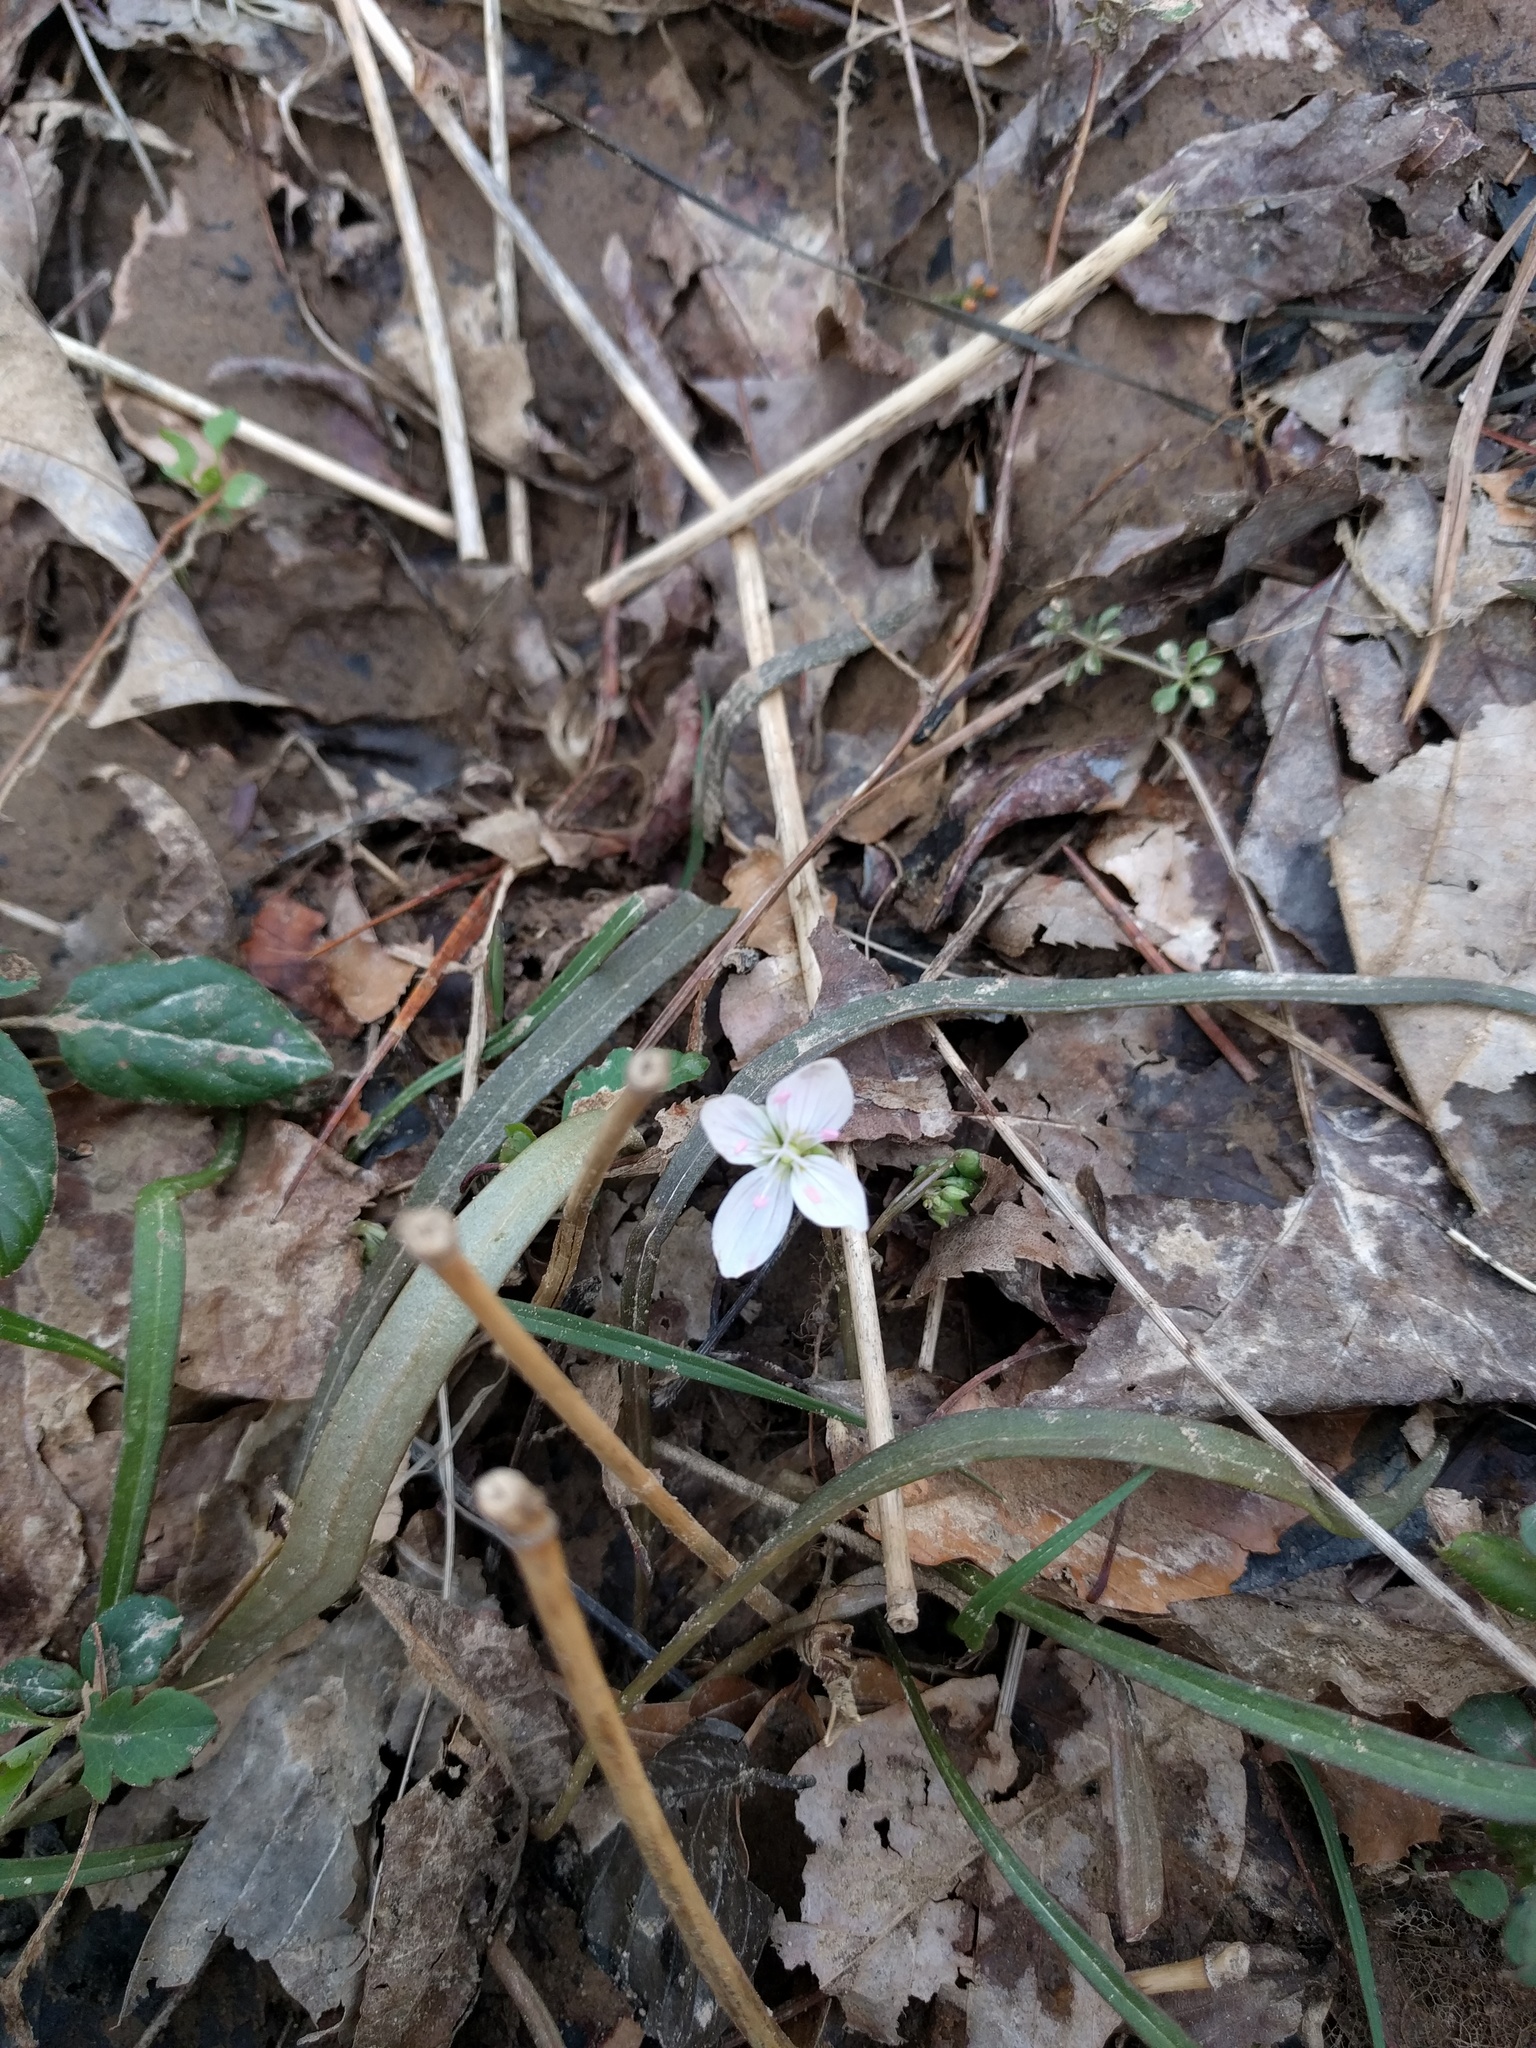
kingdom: Plantae
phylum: Tracheophyta
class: Magnoliopsida
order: Caryophyllales
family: Montiaceae
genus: Claytonia
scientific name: Claytonia virginica
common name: Virginia springbeauty
